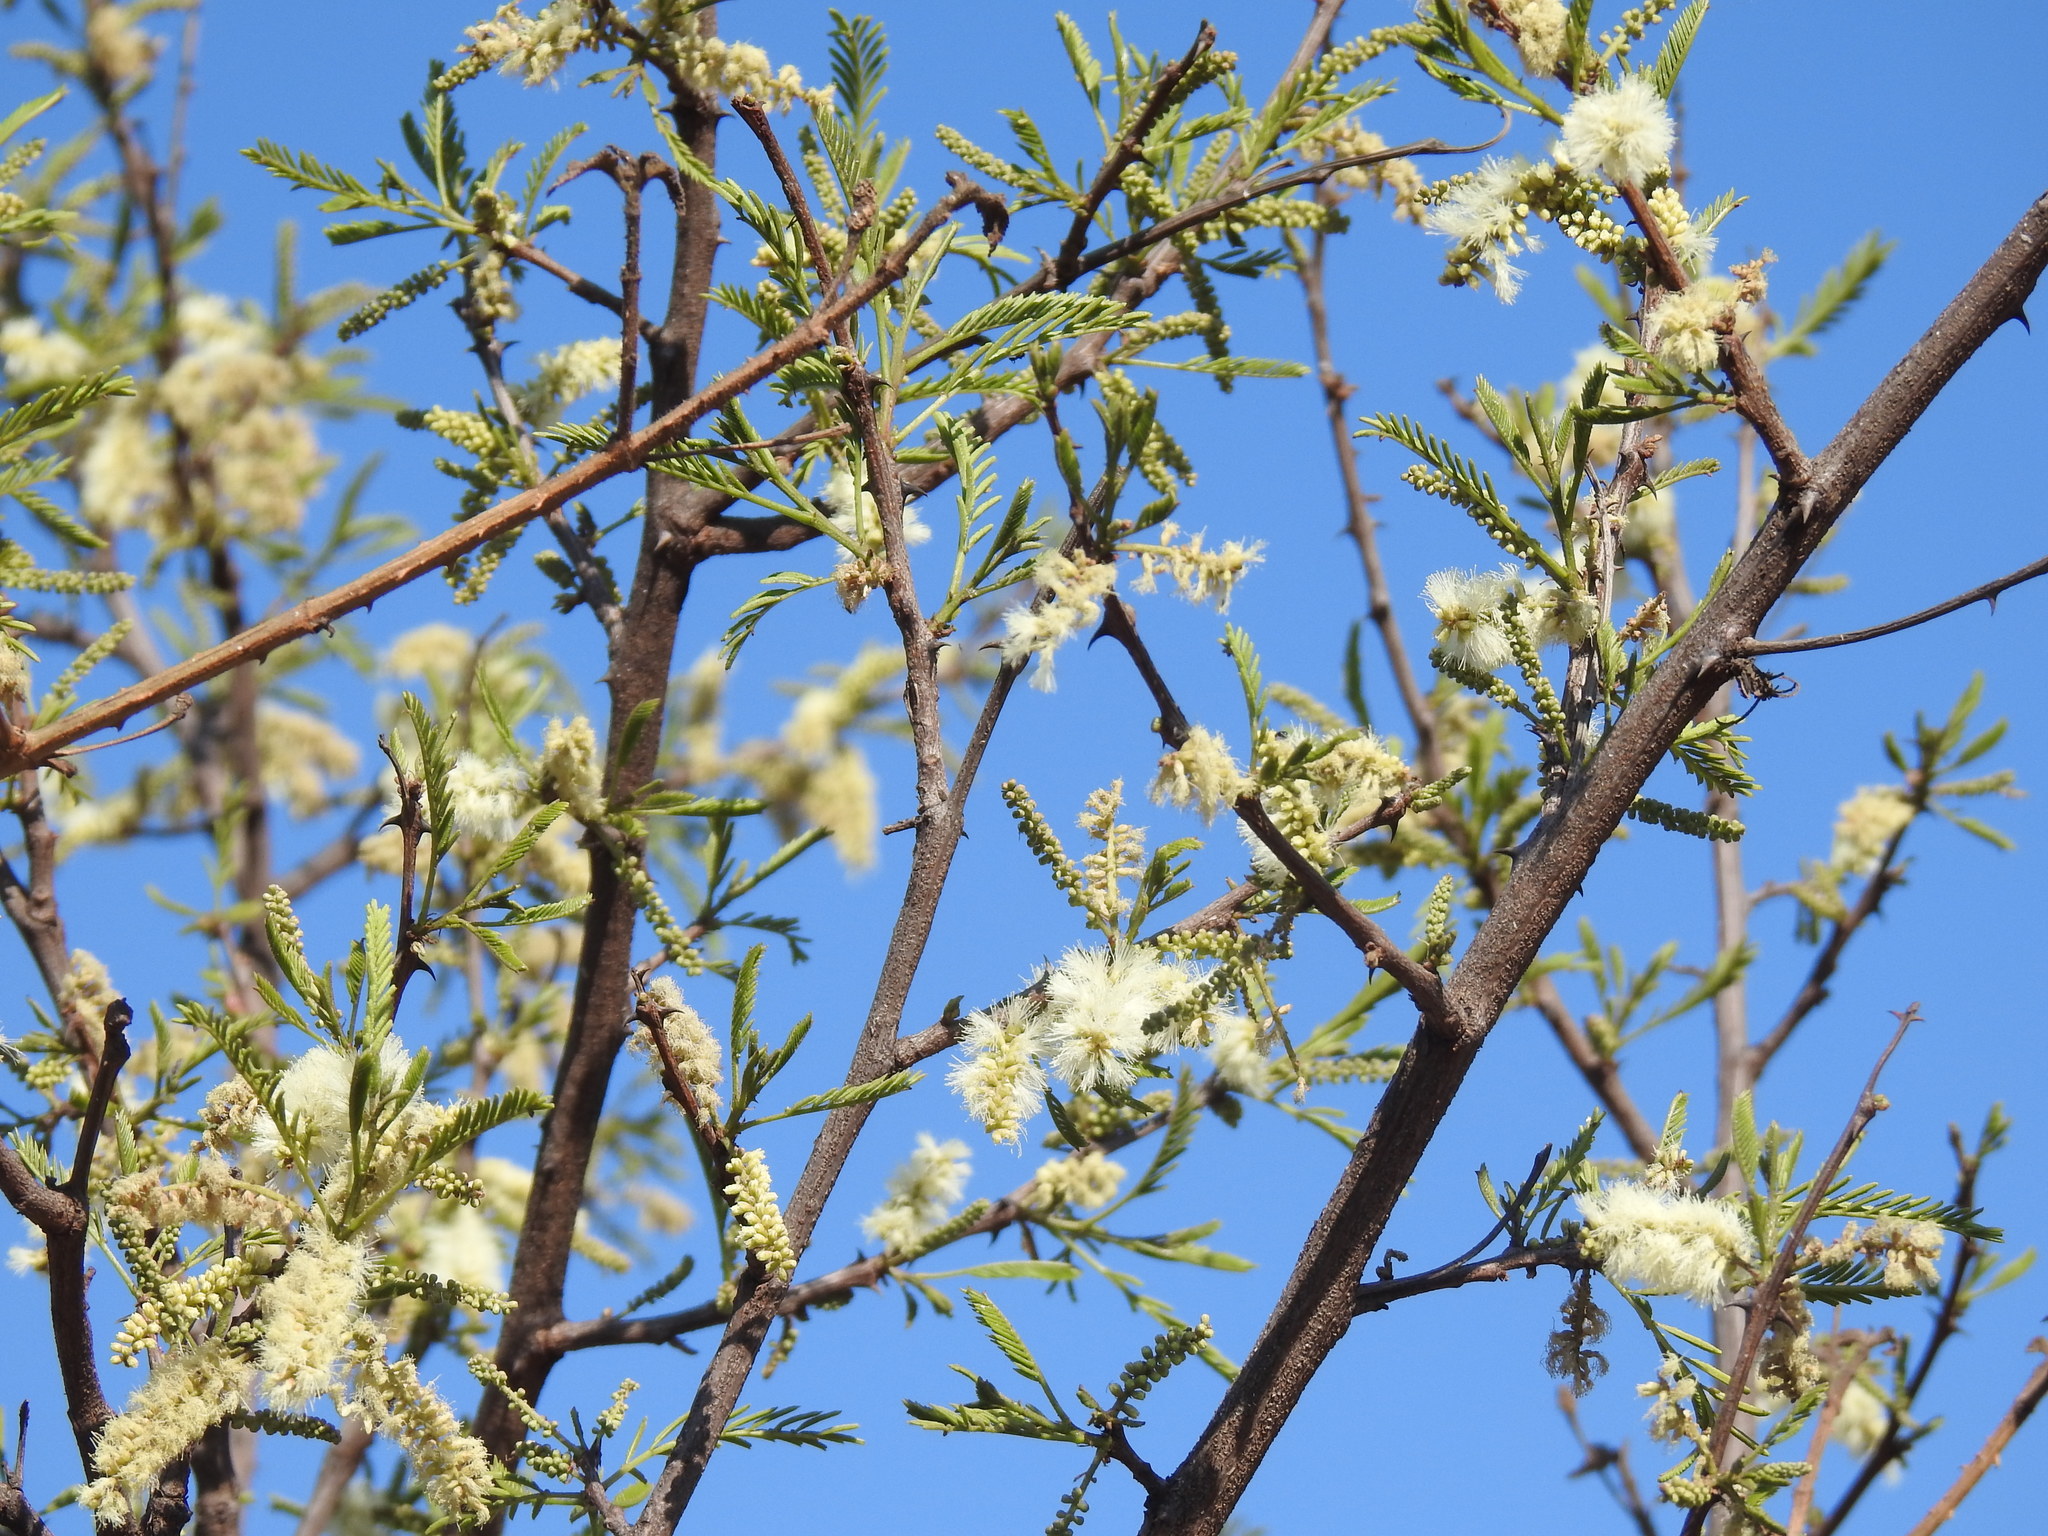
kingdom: Plantae
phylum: Tracheophyta
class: Magnoliopsida
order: Fabales
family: Fabaceae
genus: Senegalia
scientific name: Senegalia caffra
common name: Cat thorn
